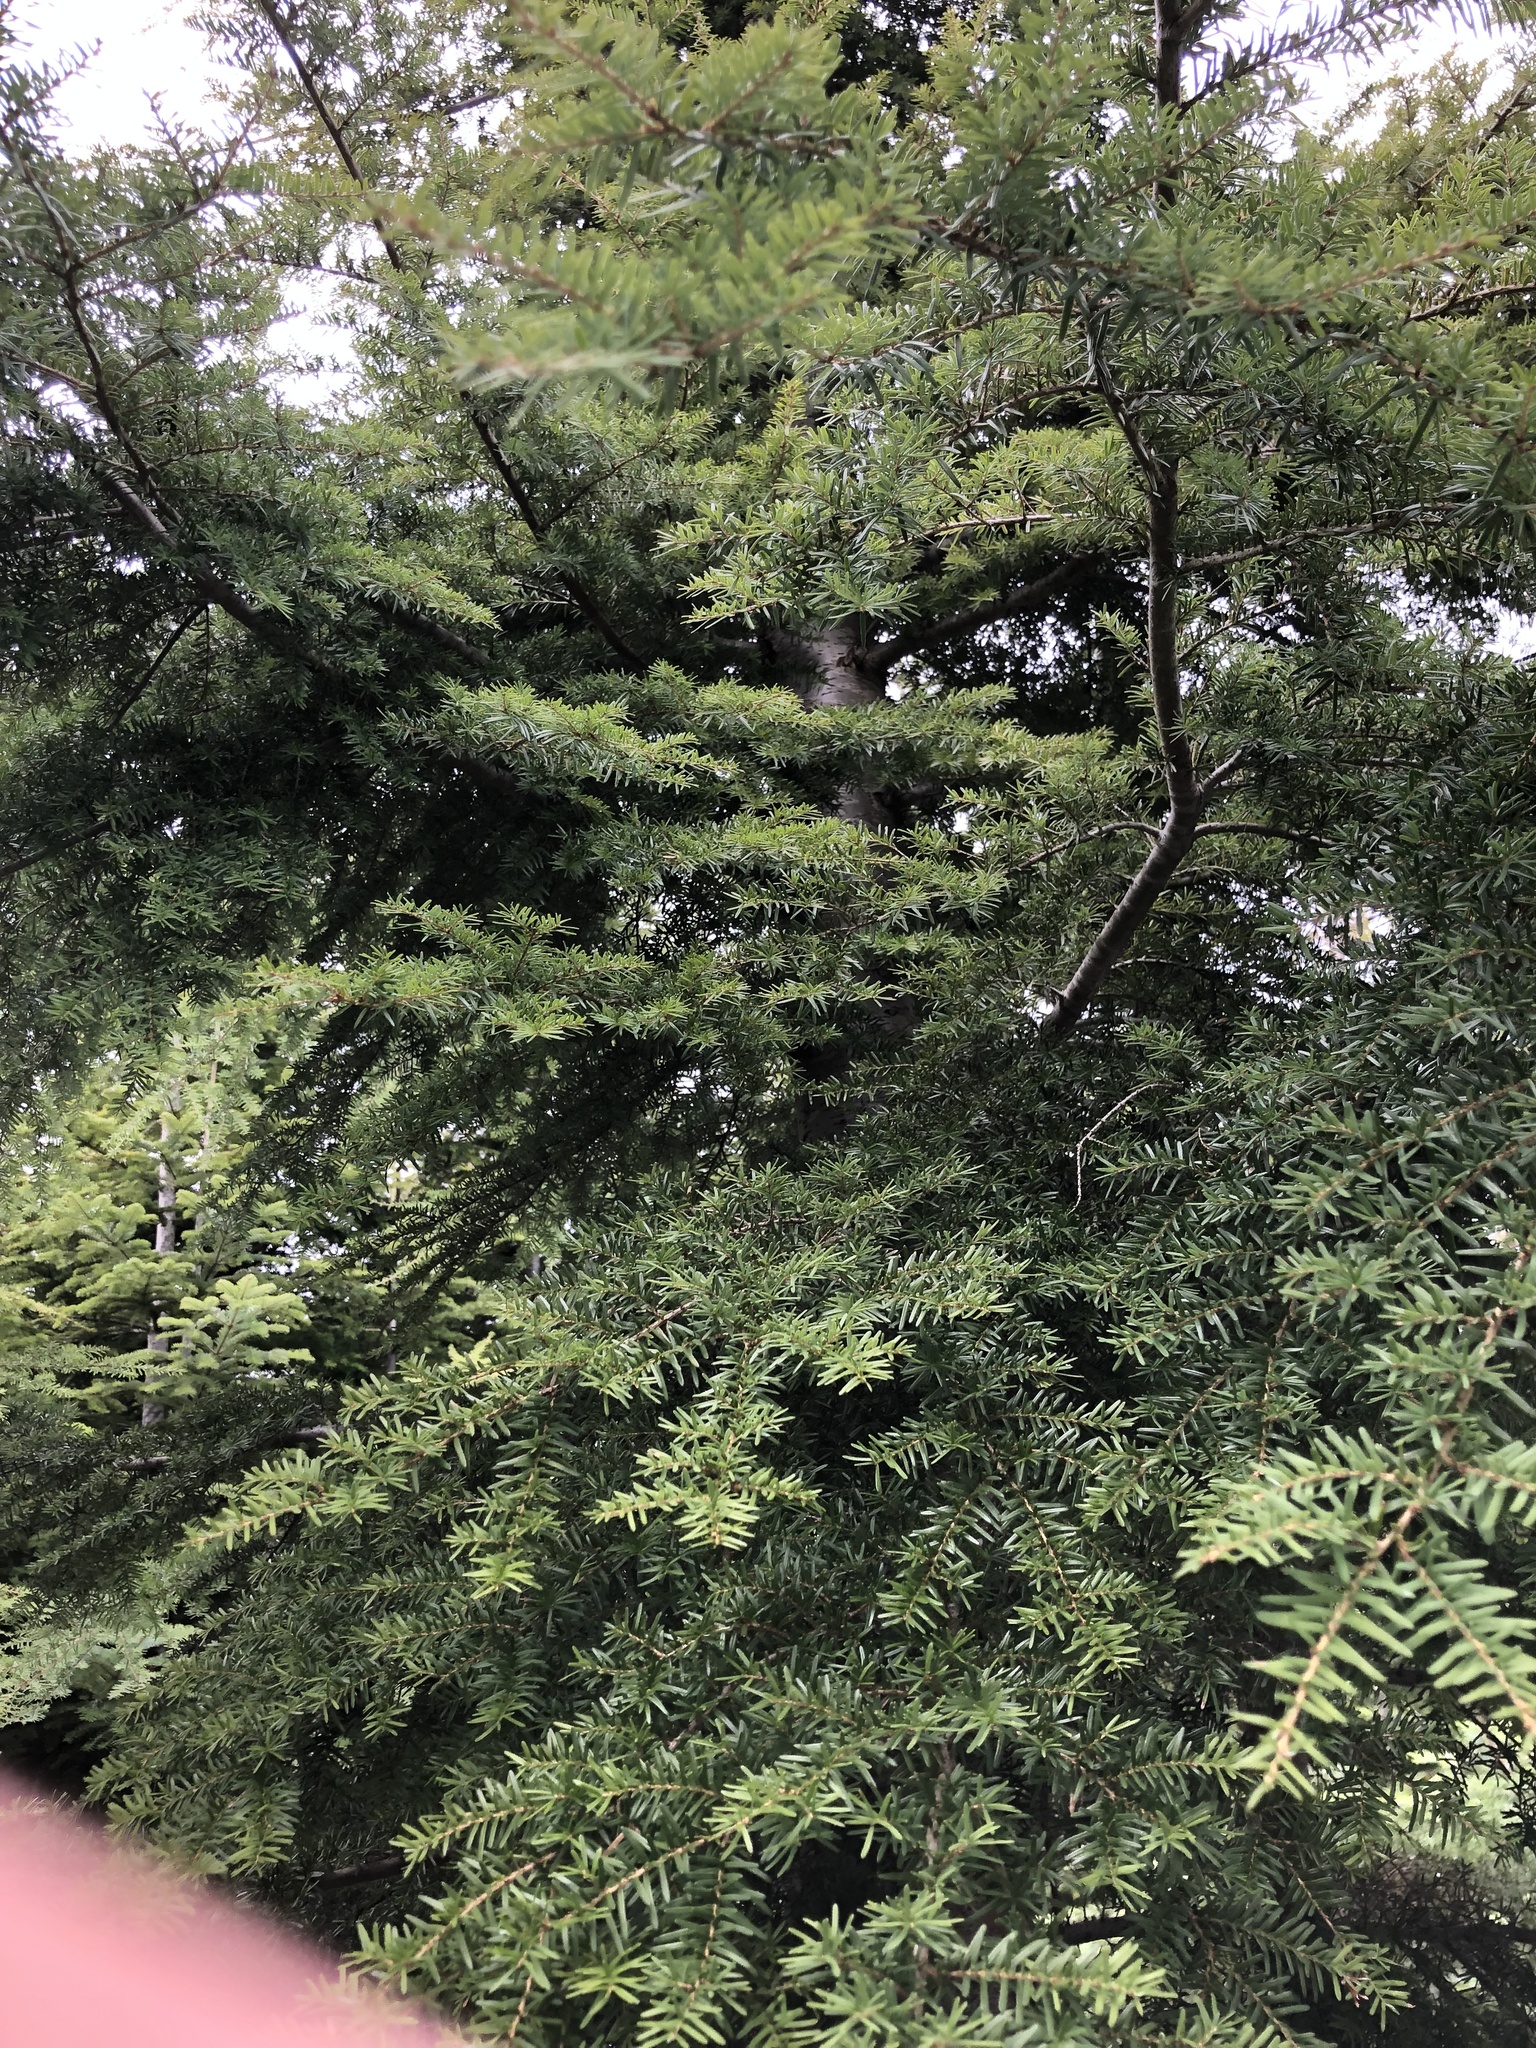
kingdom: Plantae
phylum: Tracheophyta
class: Pinopsida
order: Pinales
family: Pinaceae
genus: Tsuga
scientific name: Tsuga heterophylla
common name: Western hemlock
